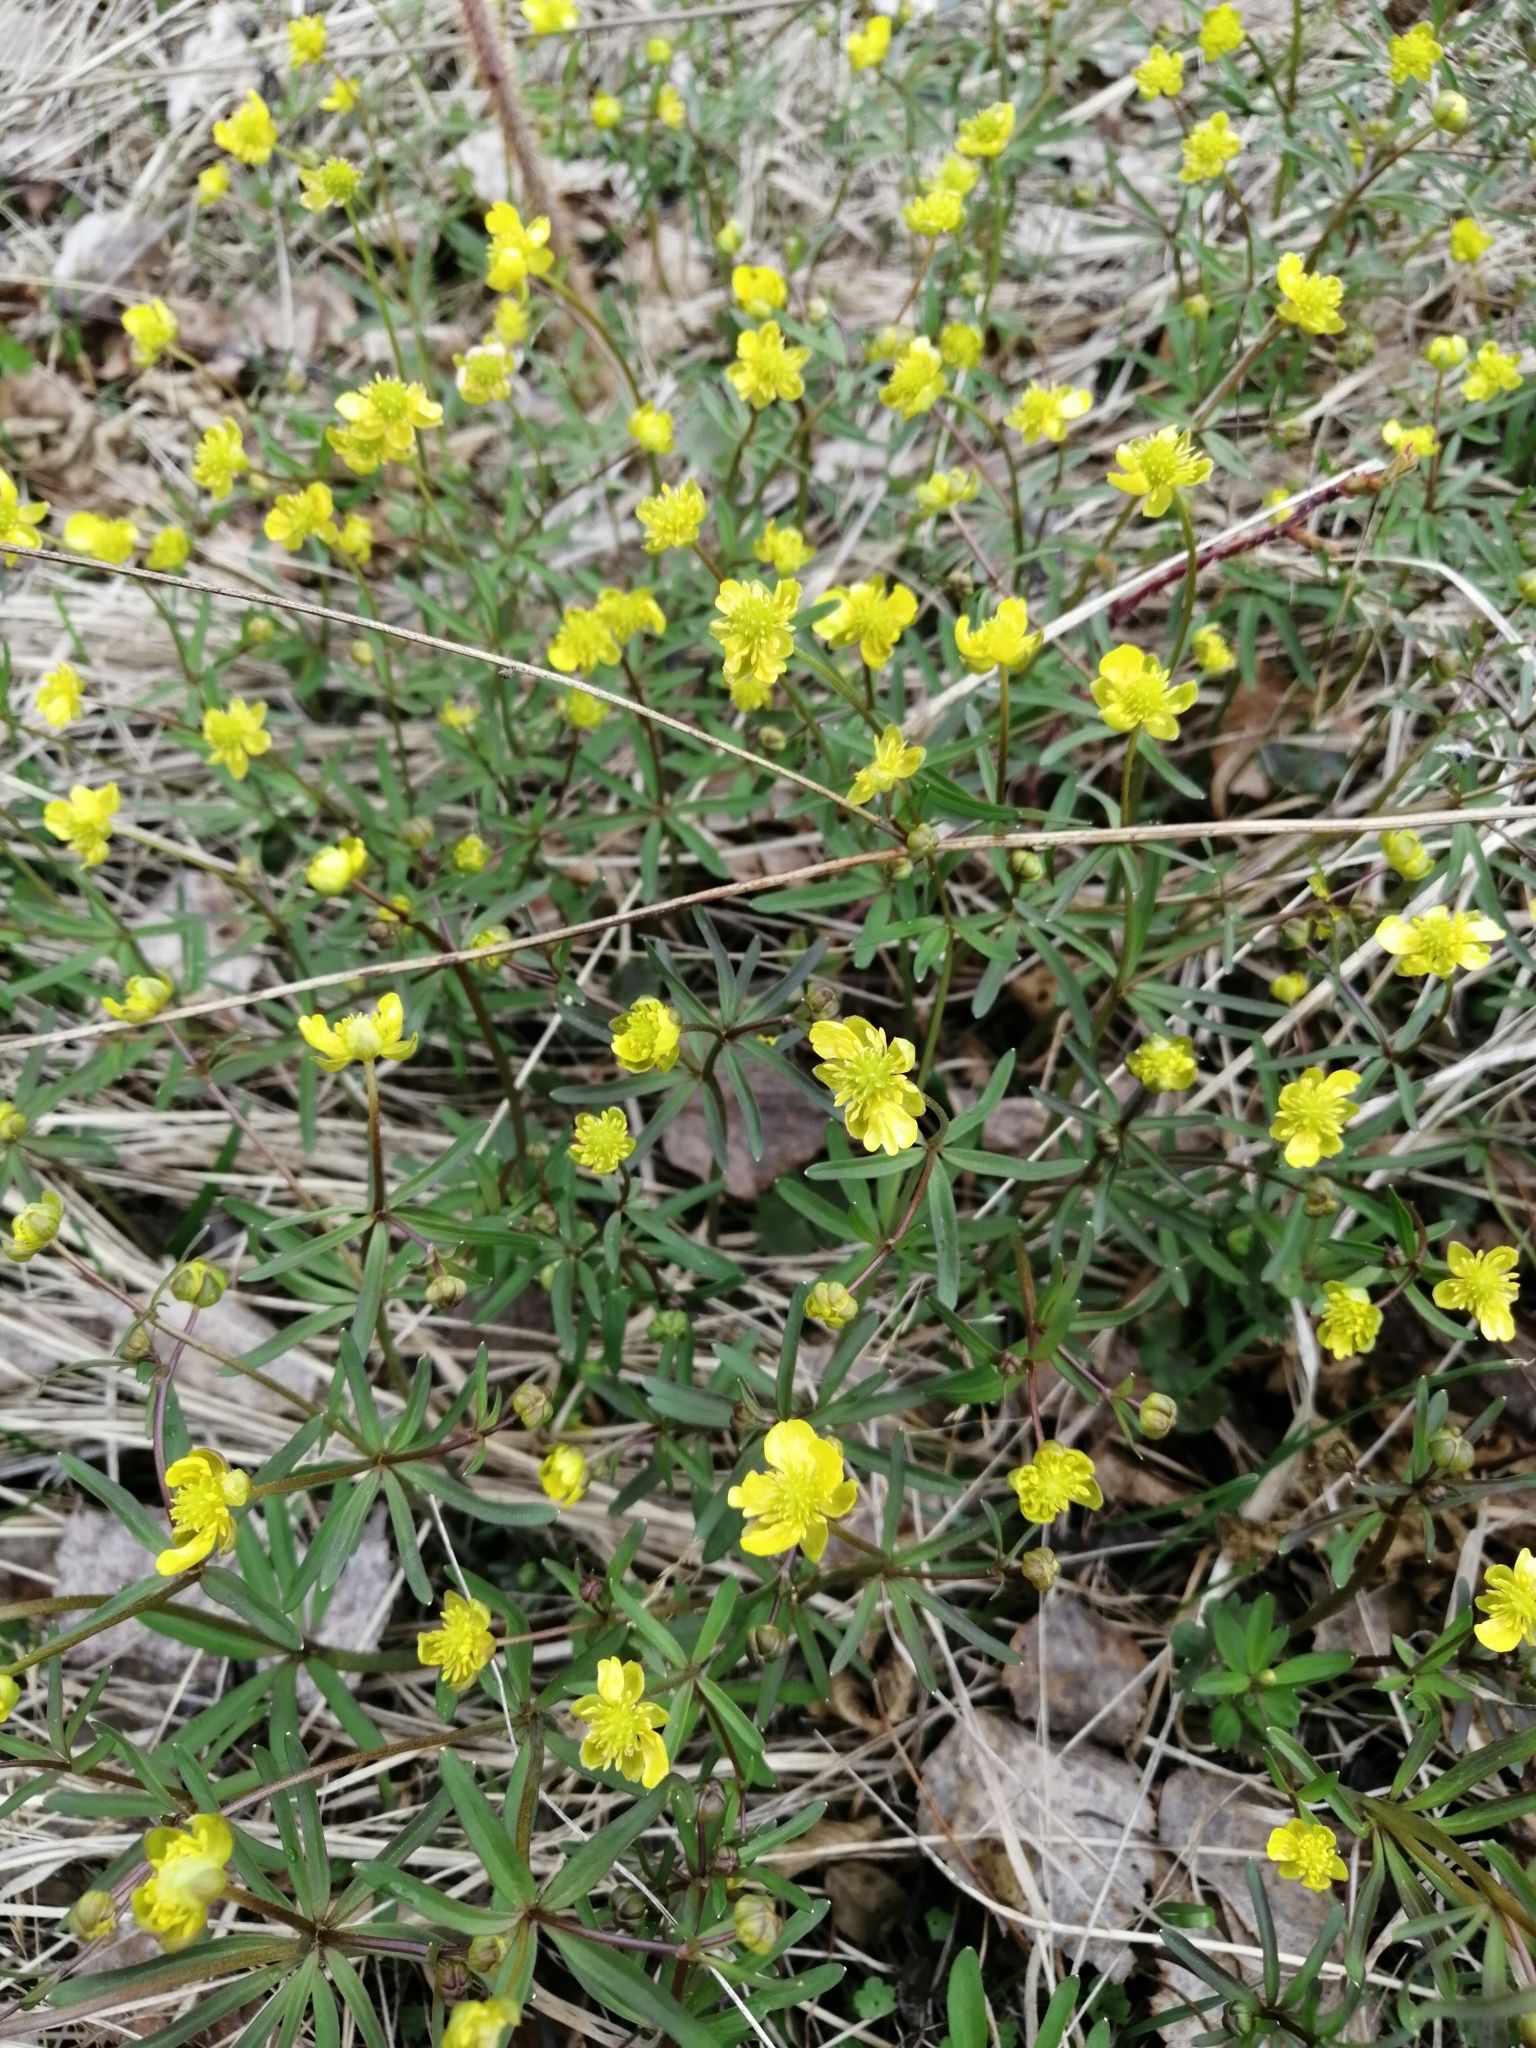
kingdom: Plantae
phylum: Tracheophyta
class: Magnoliopsida
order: Ranunculales
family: Ranunculaceae
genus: Ranunculus
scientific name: Ranunculus monophyllus
